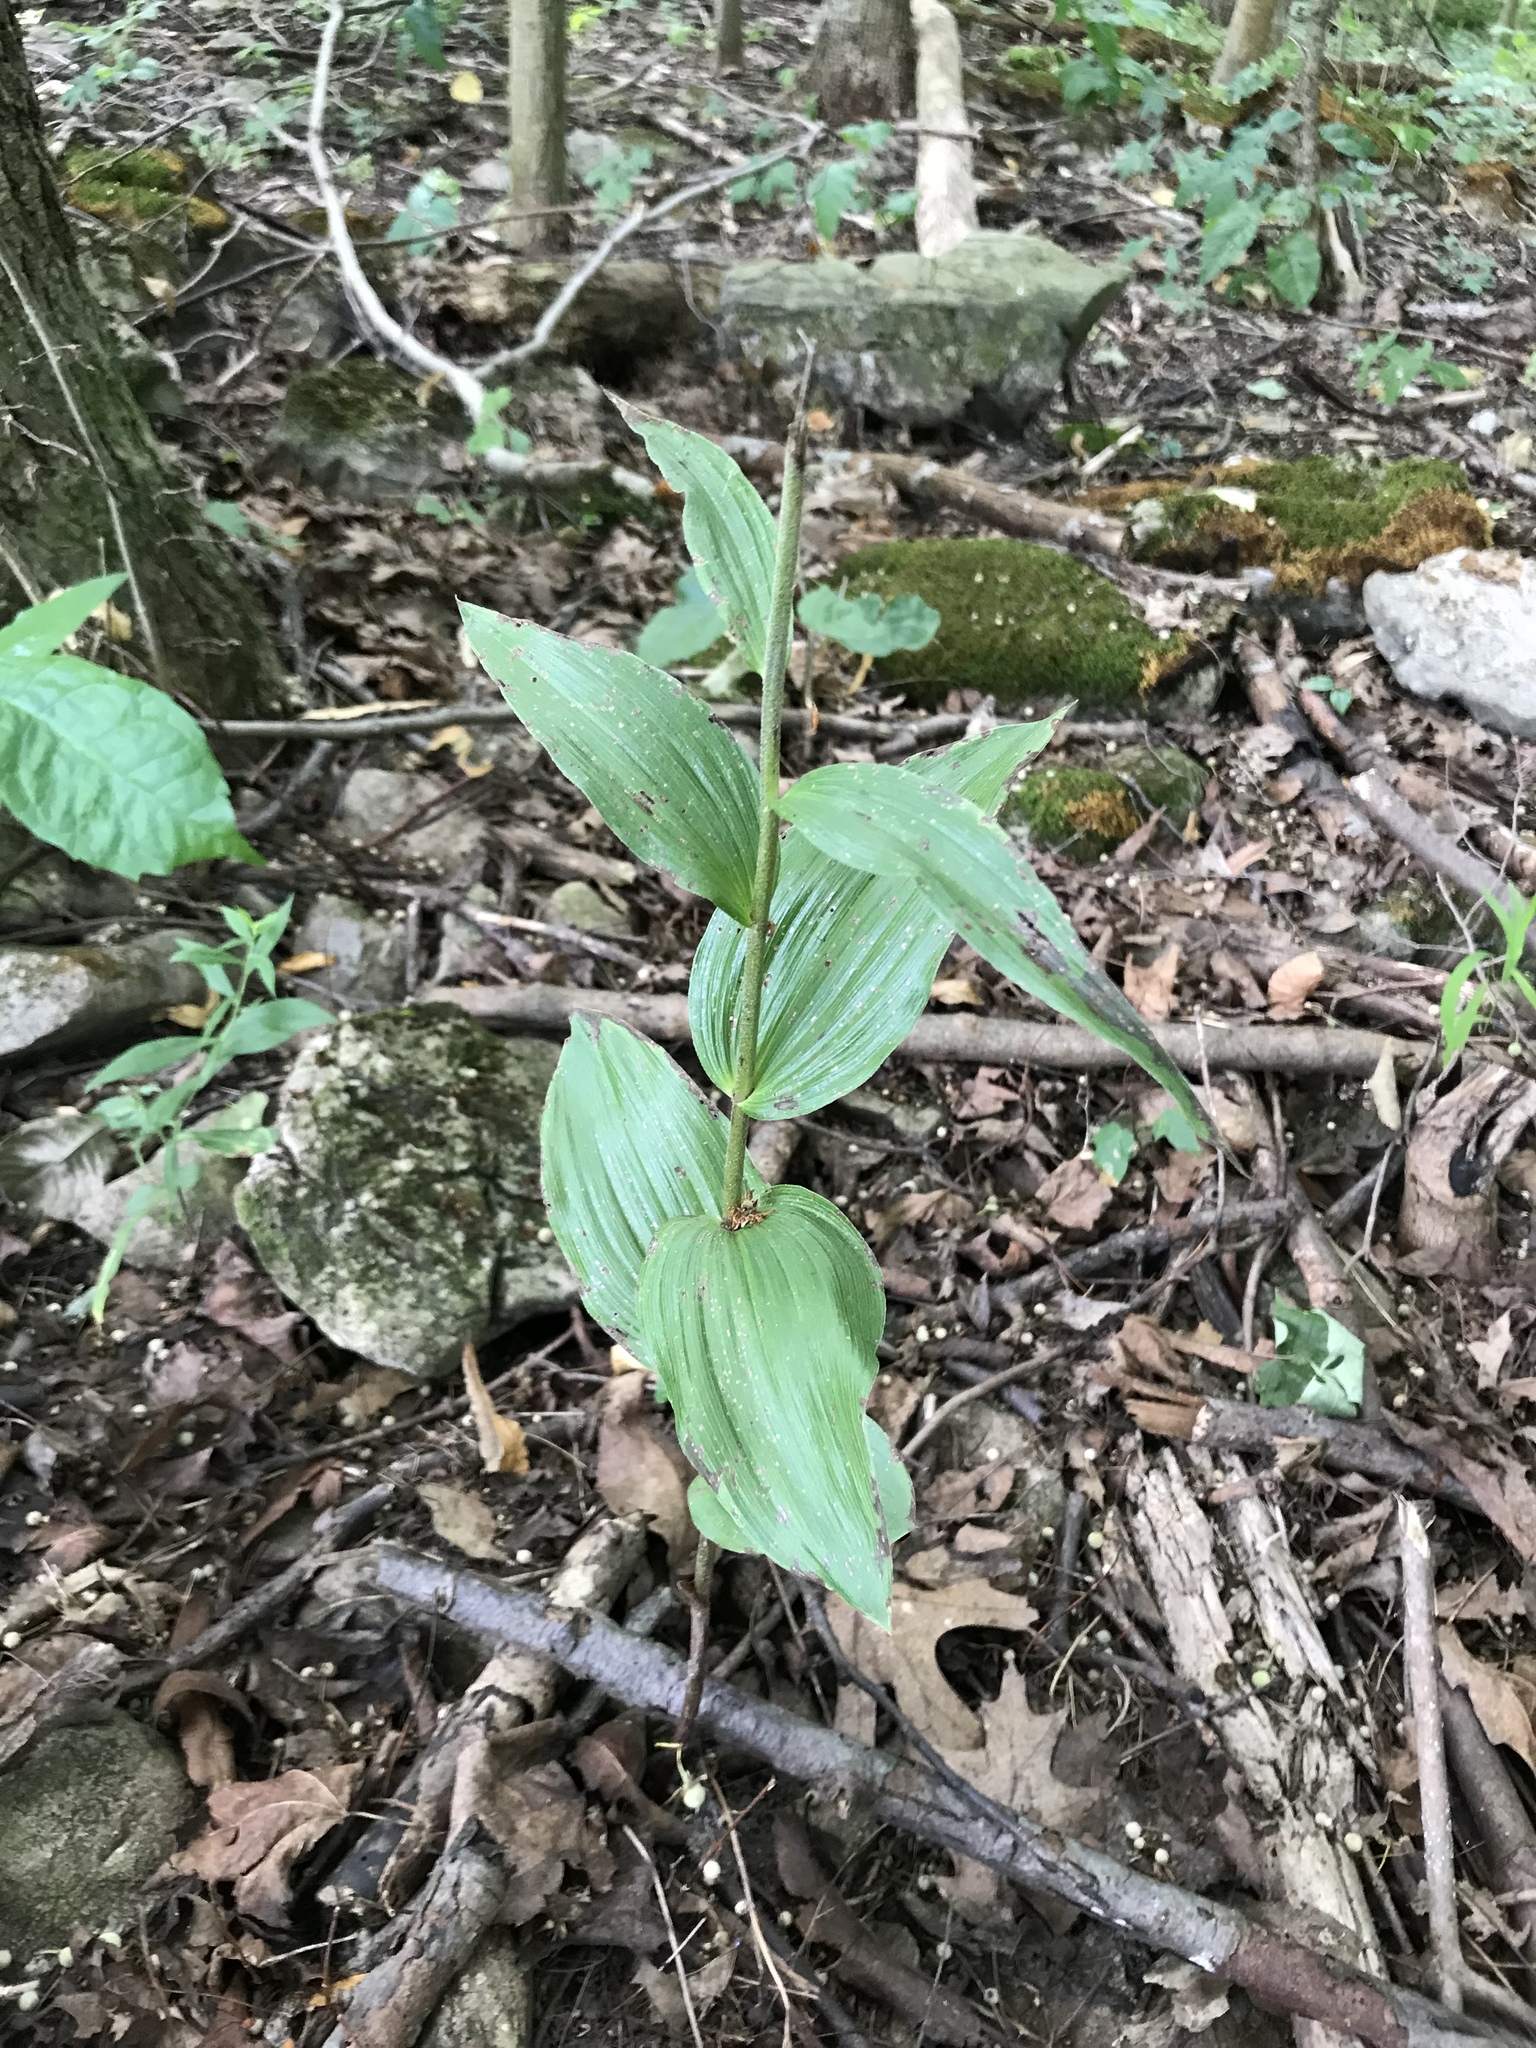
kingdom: Plantae
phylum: Tracheophyta
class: Liliopsida
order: Asparagales
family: Orchidaceae
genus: Epipactis
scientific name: Epipactis helleborine
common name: Broad-leaved helleborine
